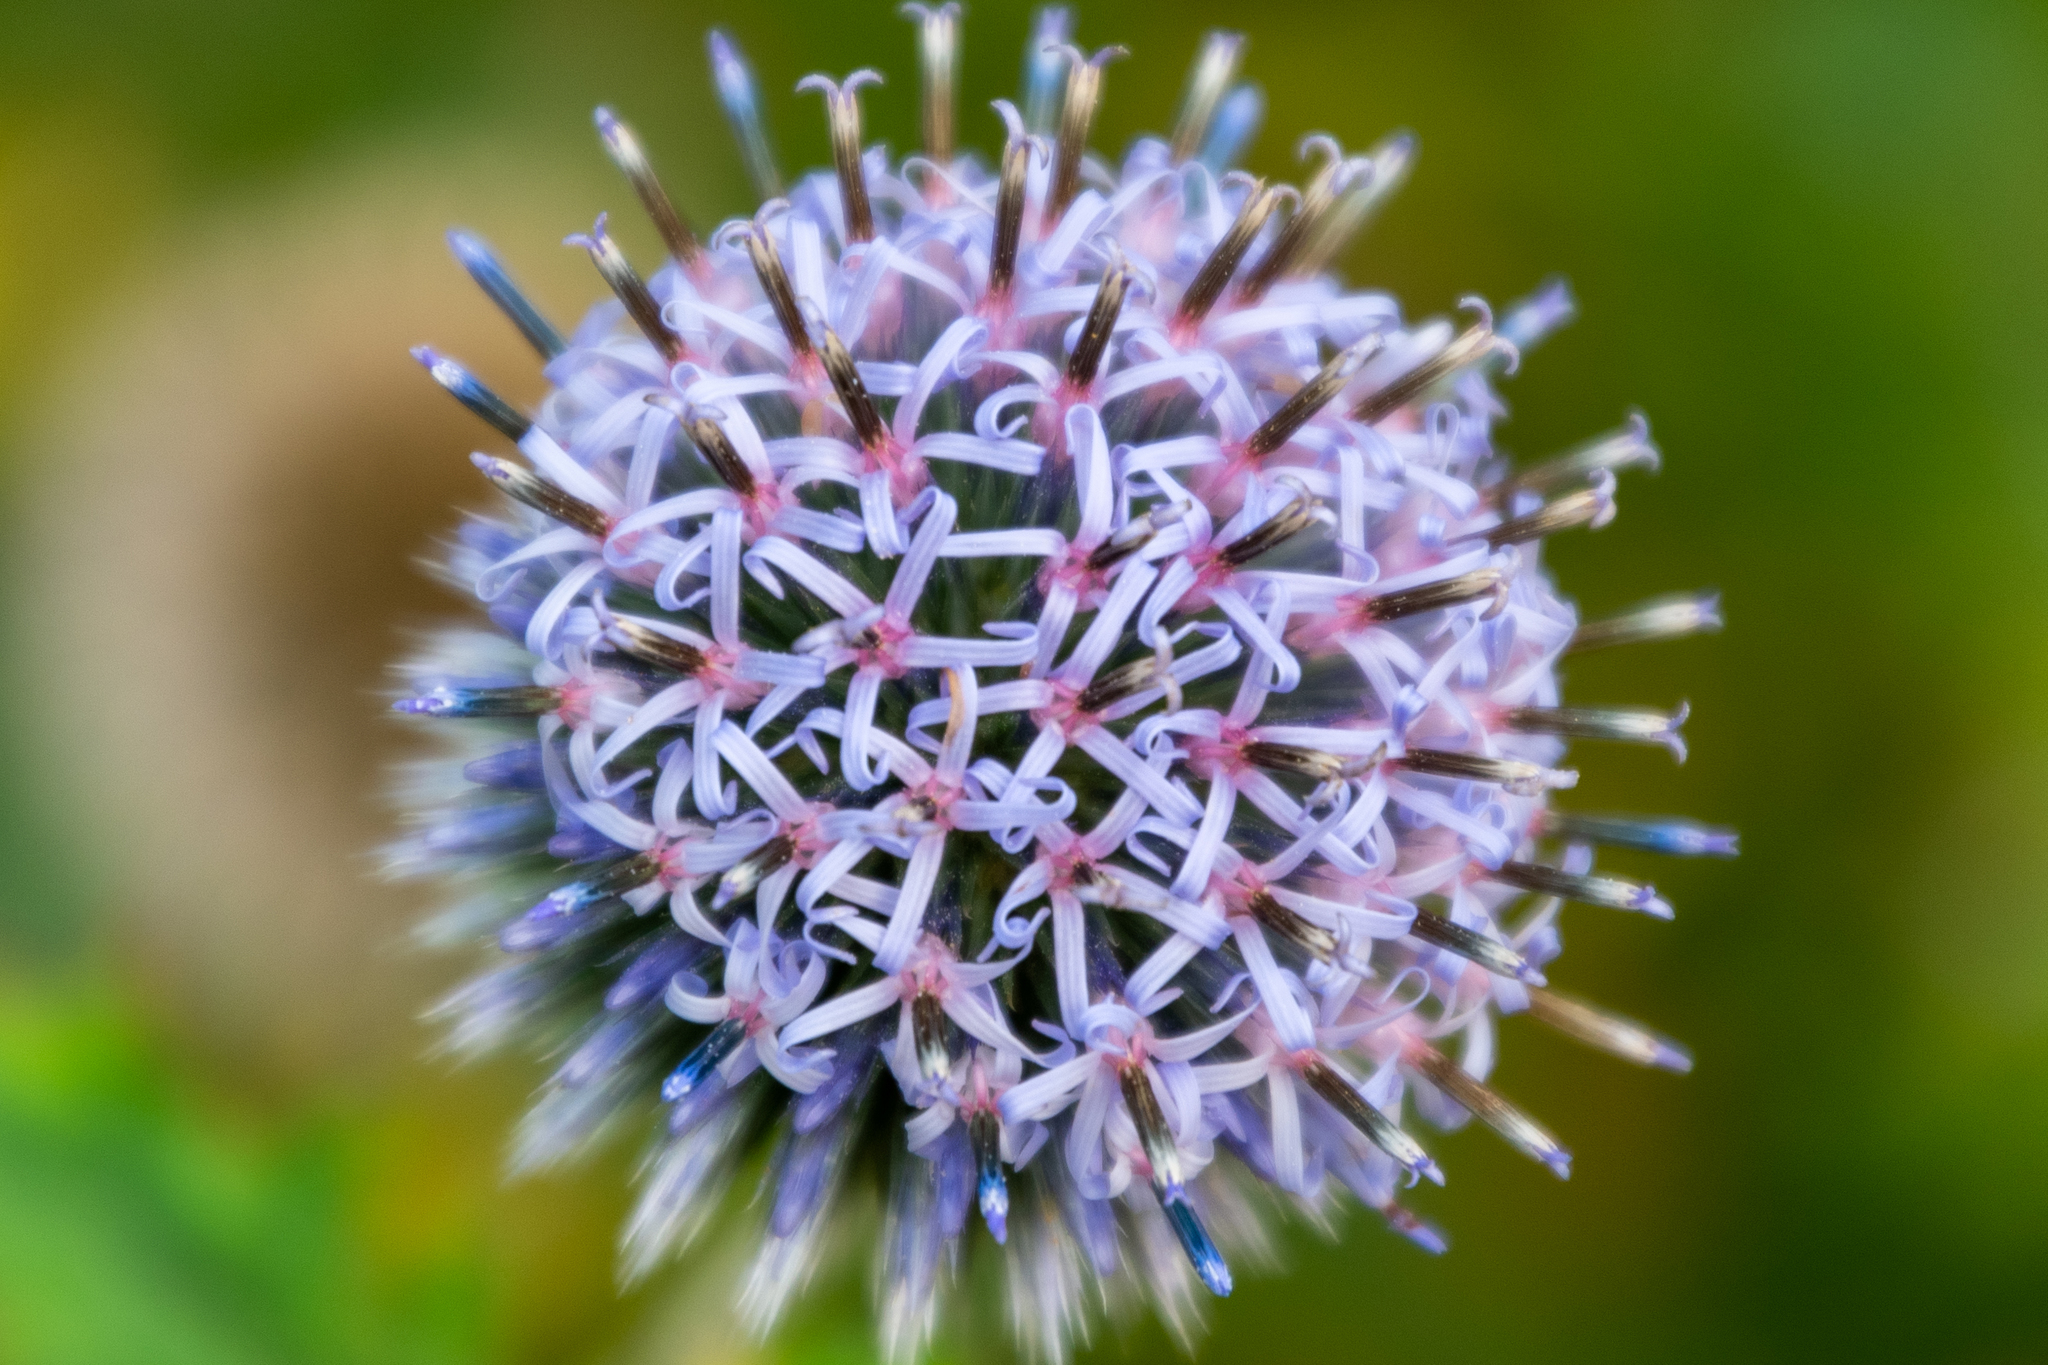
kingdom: Plantae
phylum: Tracheophyta
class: Magnoliopsida
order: Asterales
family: Asteraceae
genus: Echinops
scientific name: Echinops bannaticus
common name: Blue globe-thistle
